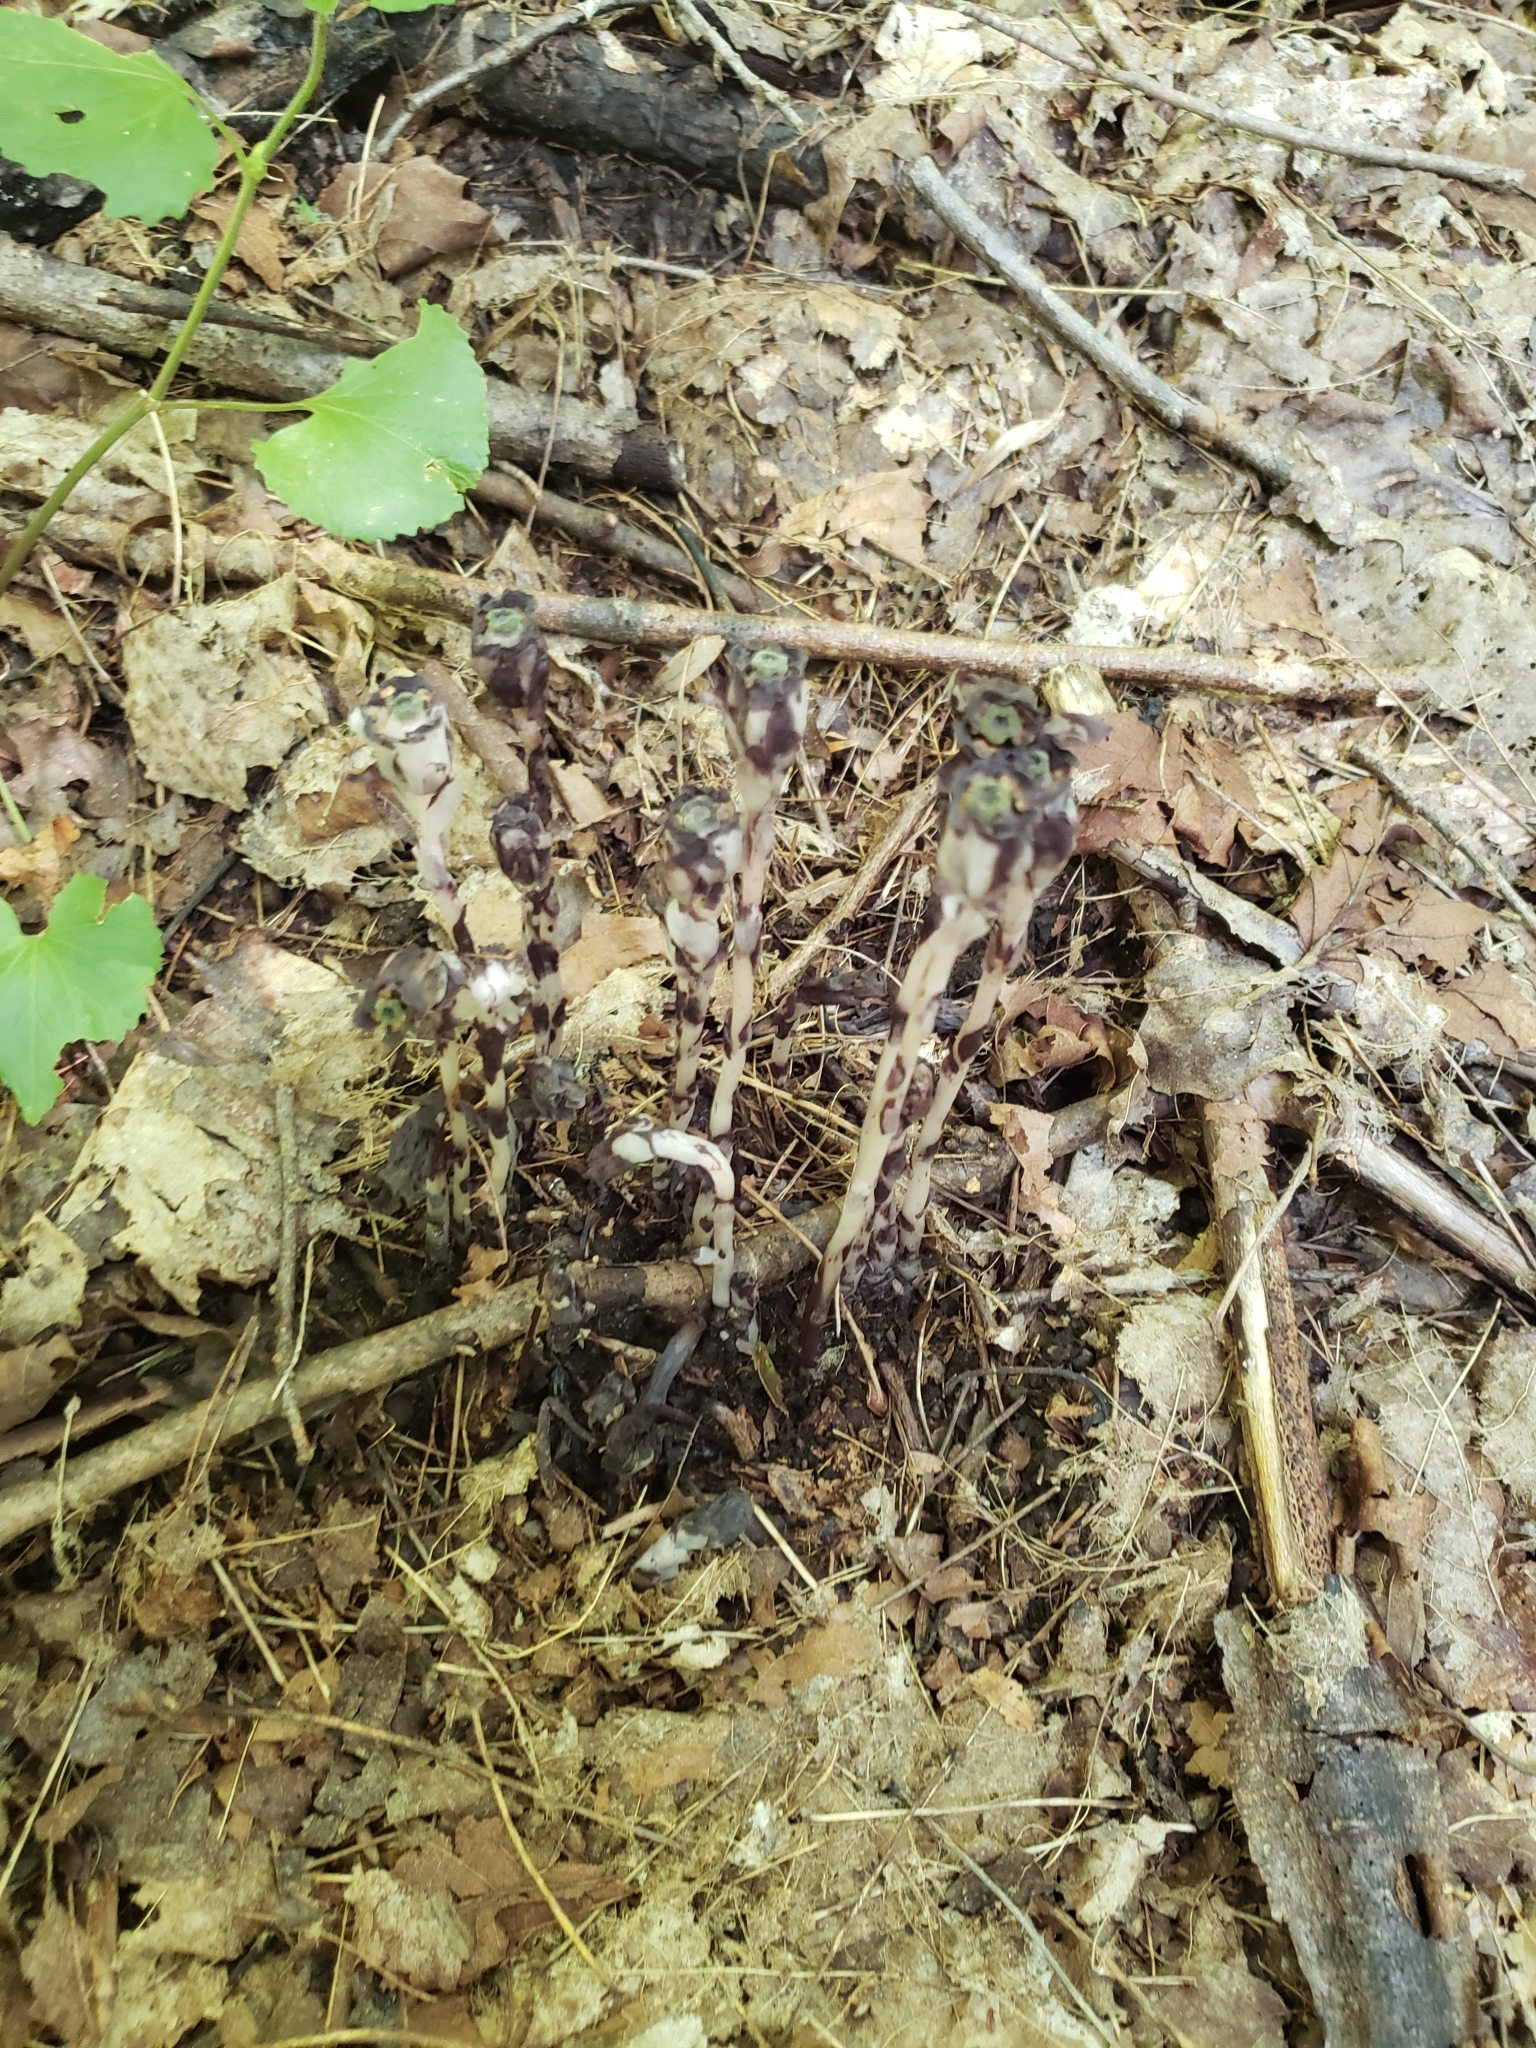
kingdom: Plantae
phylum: Tracheophyta
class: Magnoliopsida
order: Ericales
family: Ericaceae
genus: Monotropa
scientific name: Monotropa uniflora
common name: Convulsion root
